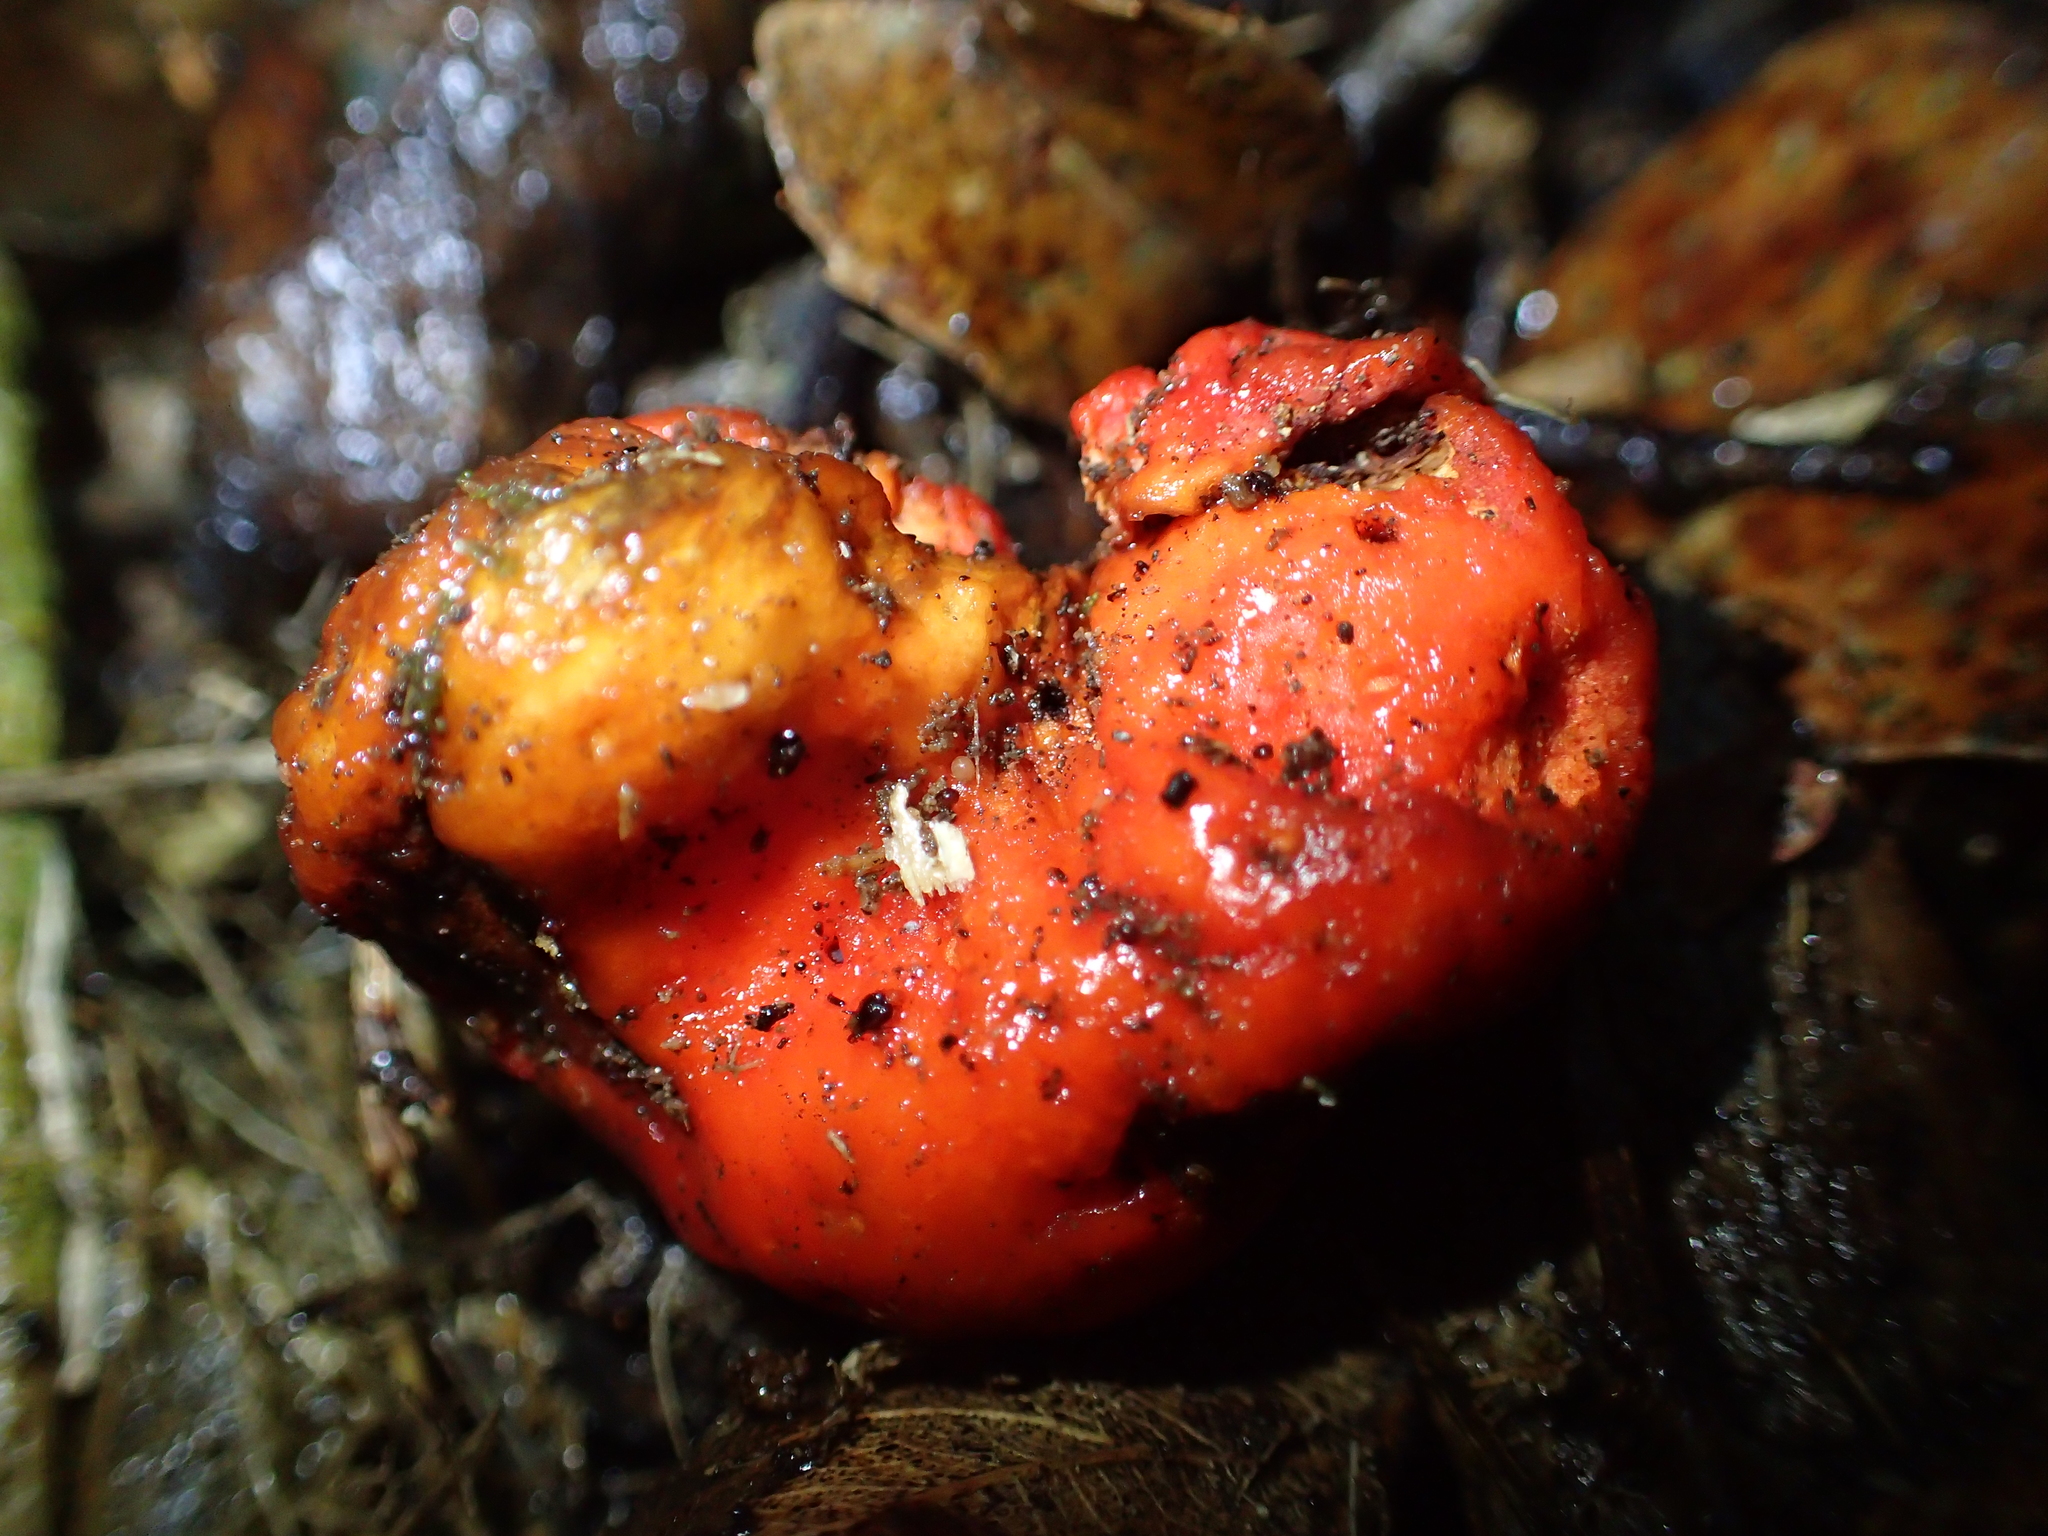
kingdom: Fungi
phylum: Basidiomycota
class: Agaricomycetes
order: Agaricales
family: Strophariaceae
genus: Leratiomyces
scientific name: Leratiomyces erythrocephalus
